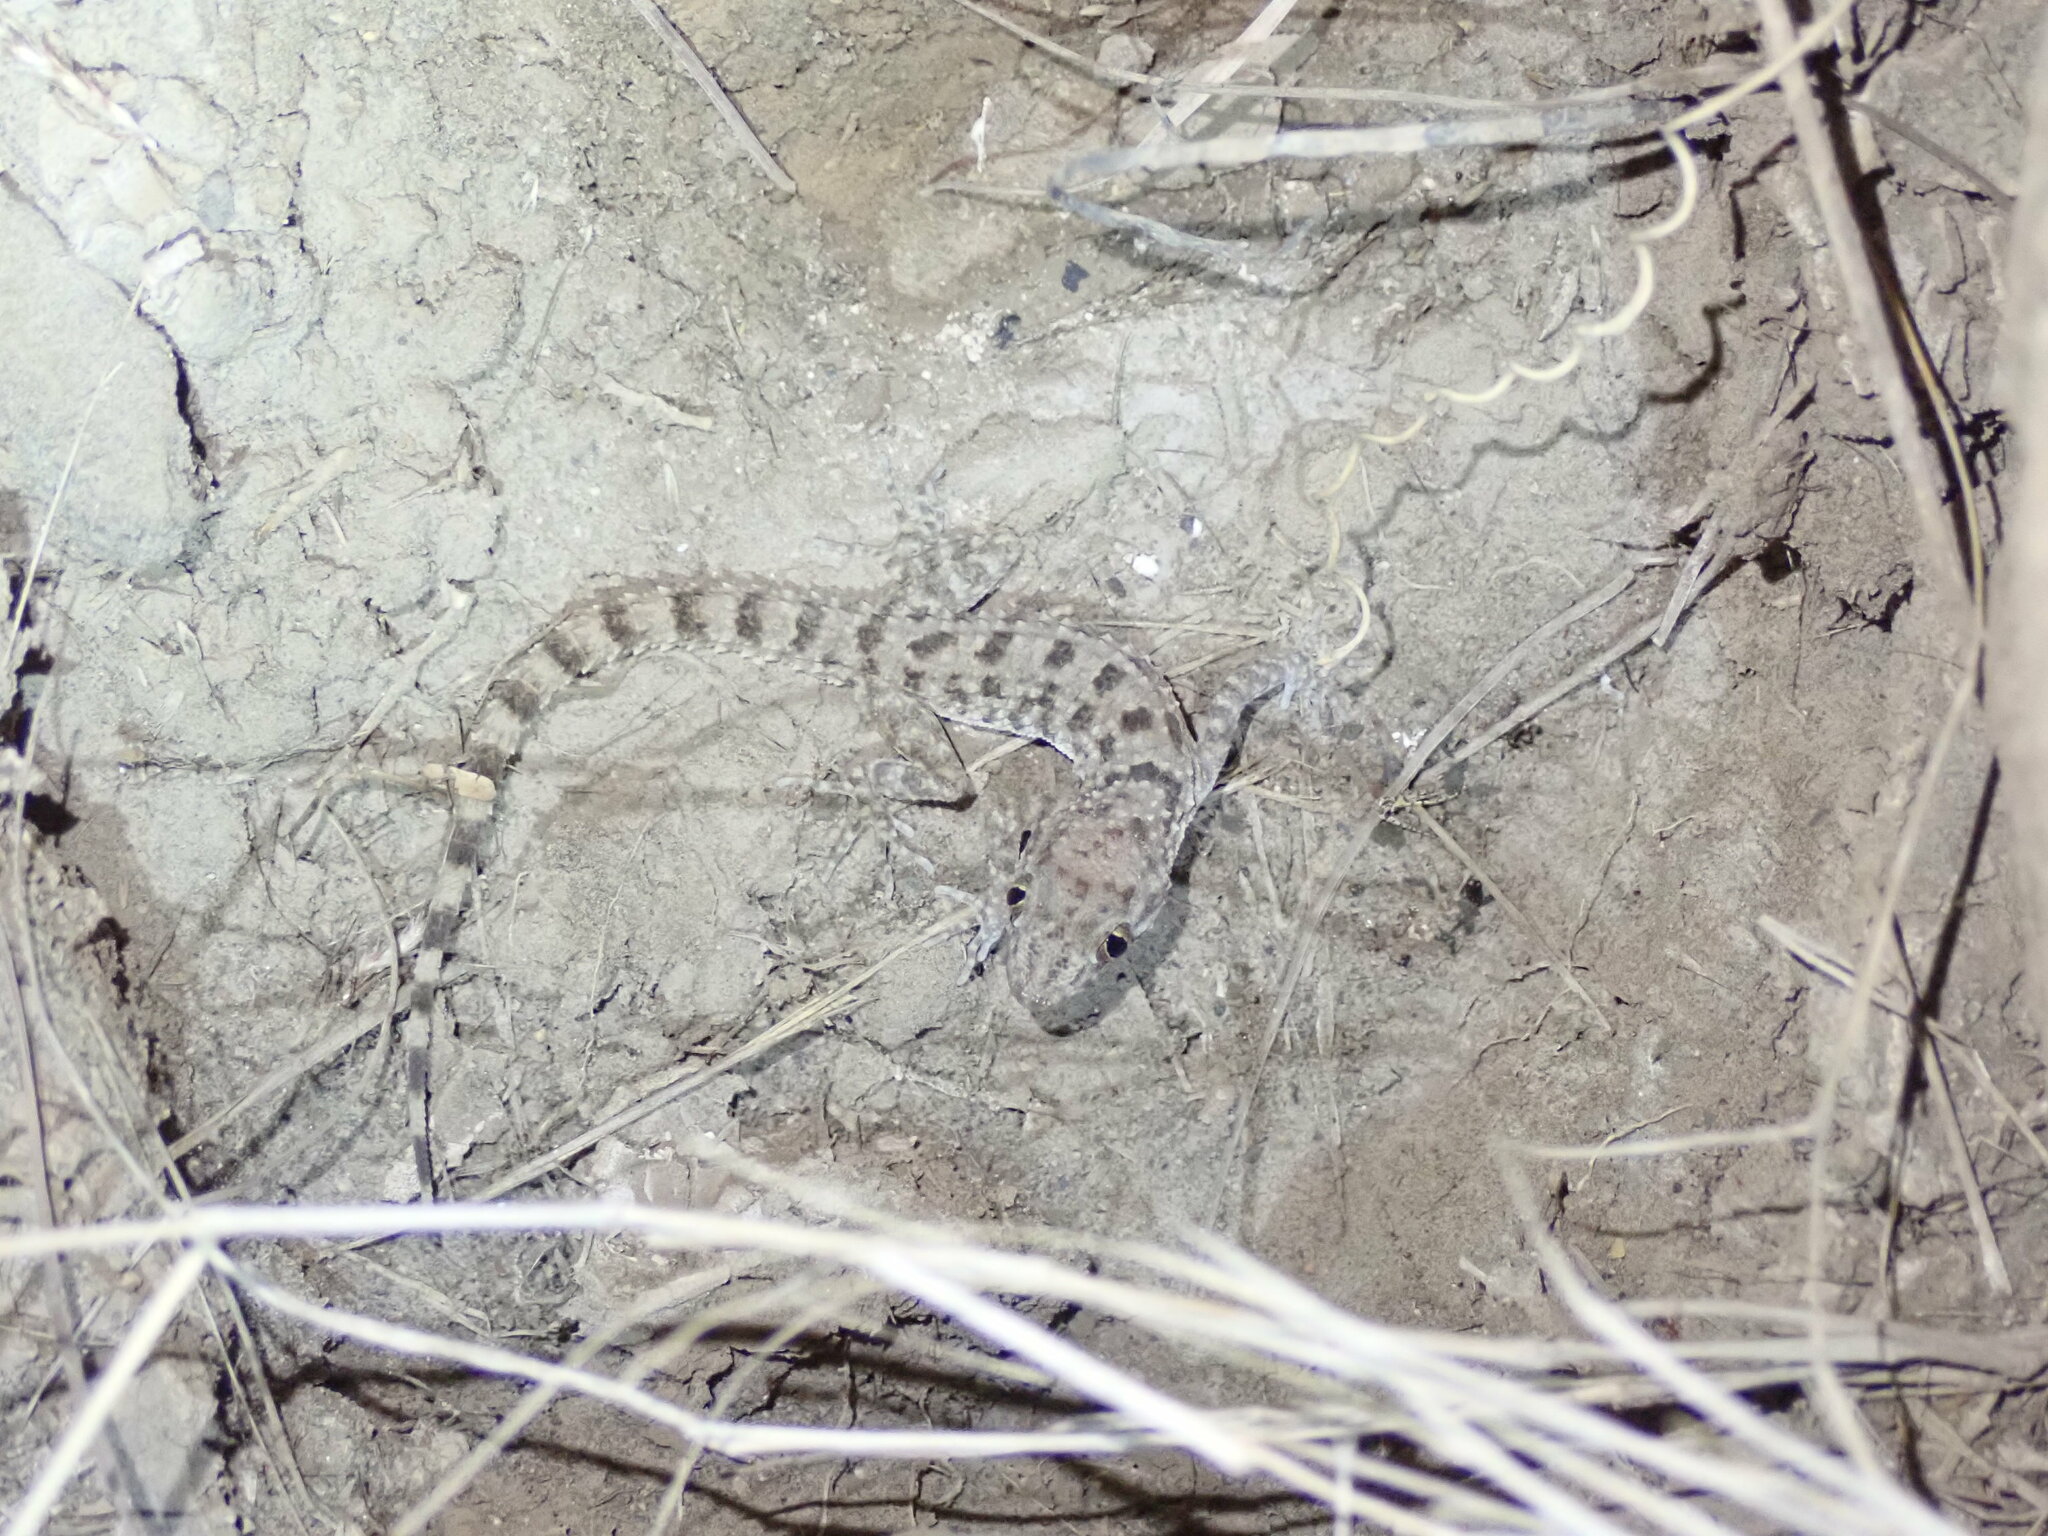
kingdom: Animalia
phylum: Chordata
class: Squamata
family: Gekkonidae
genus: Cyrtopodion
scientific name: Cyrtopodion scabrum
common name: Rough-tailed gecko
